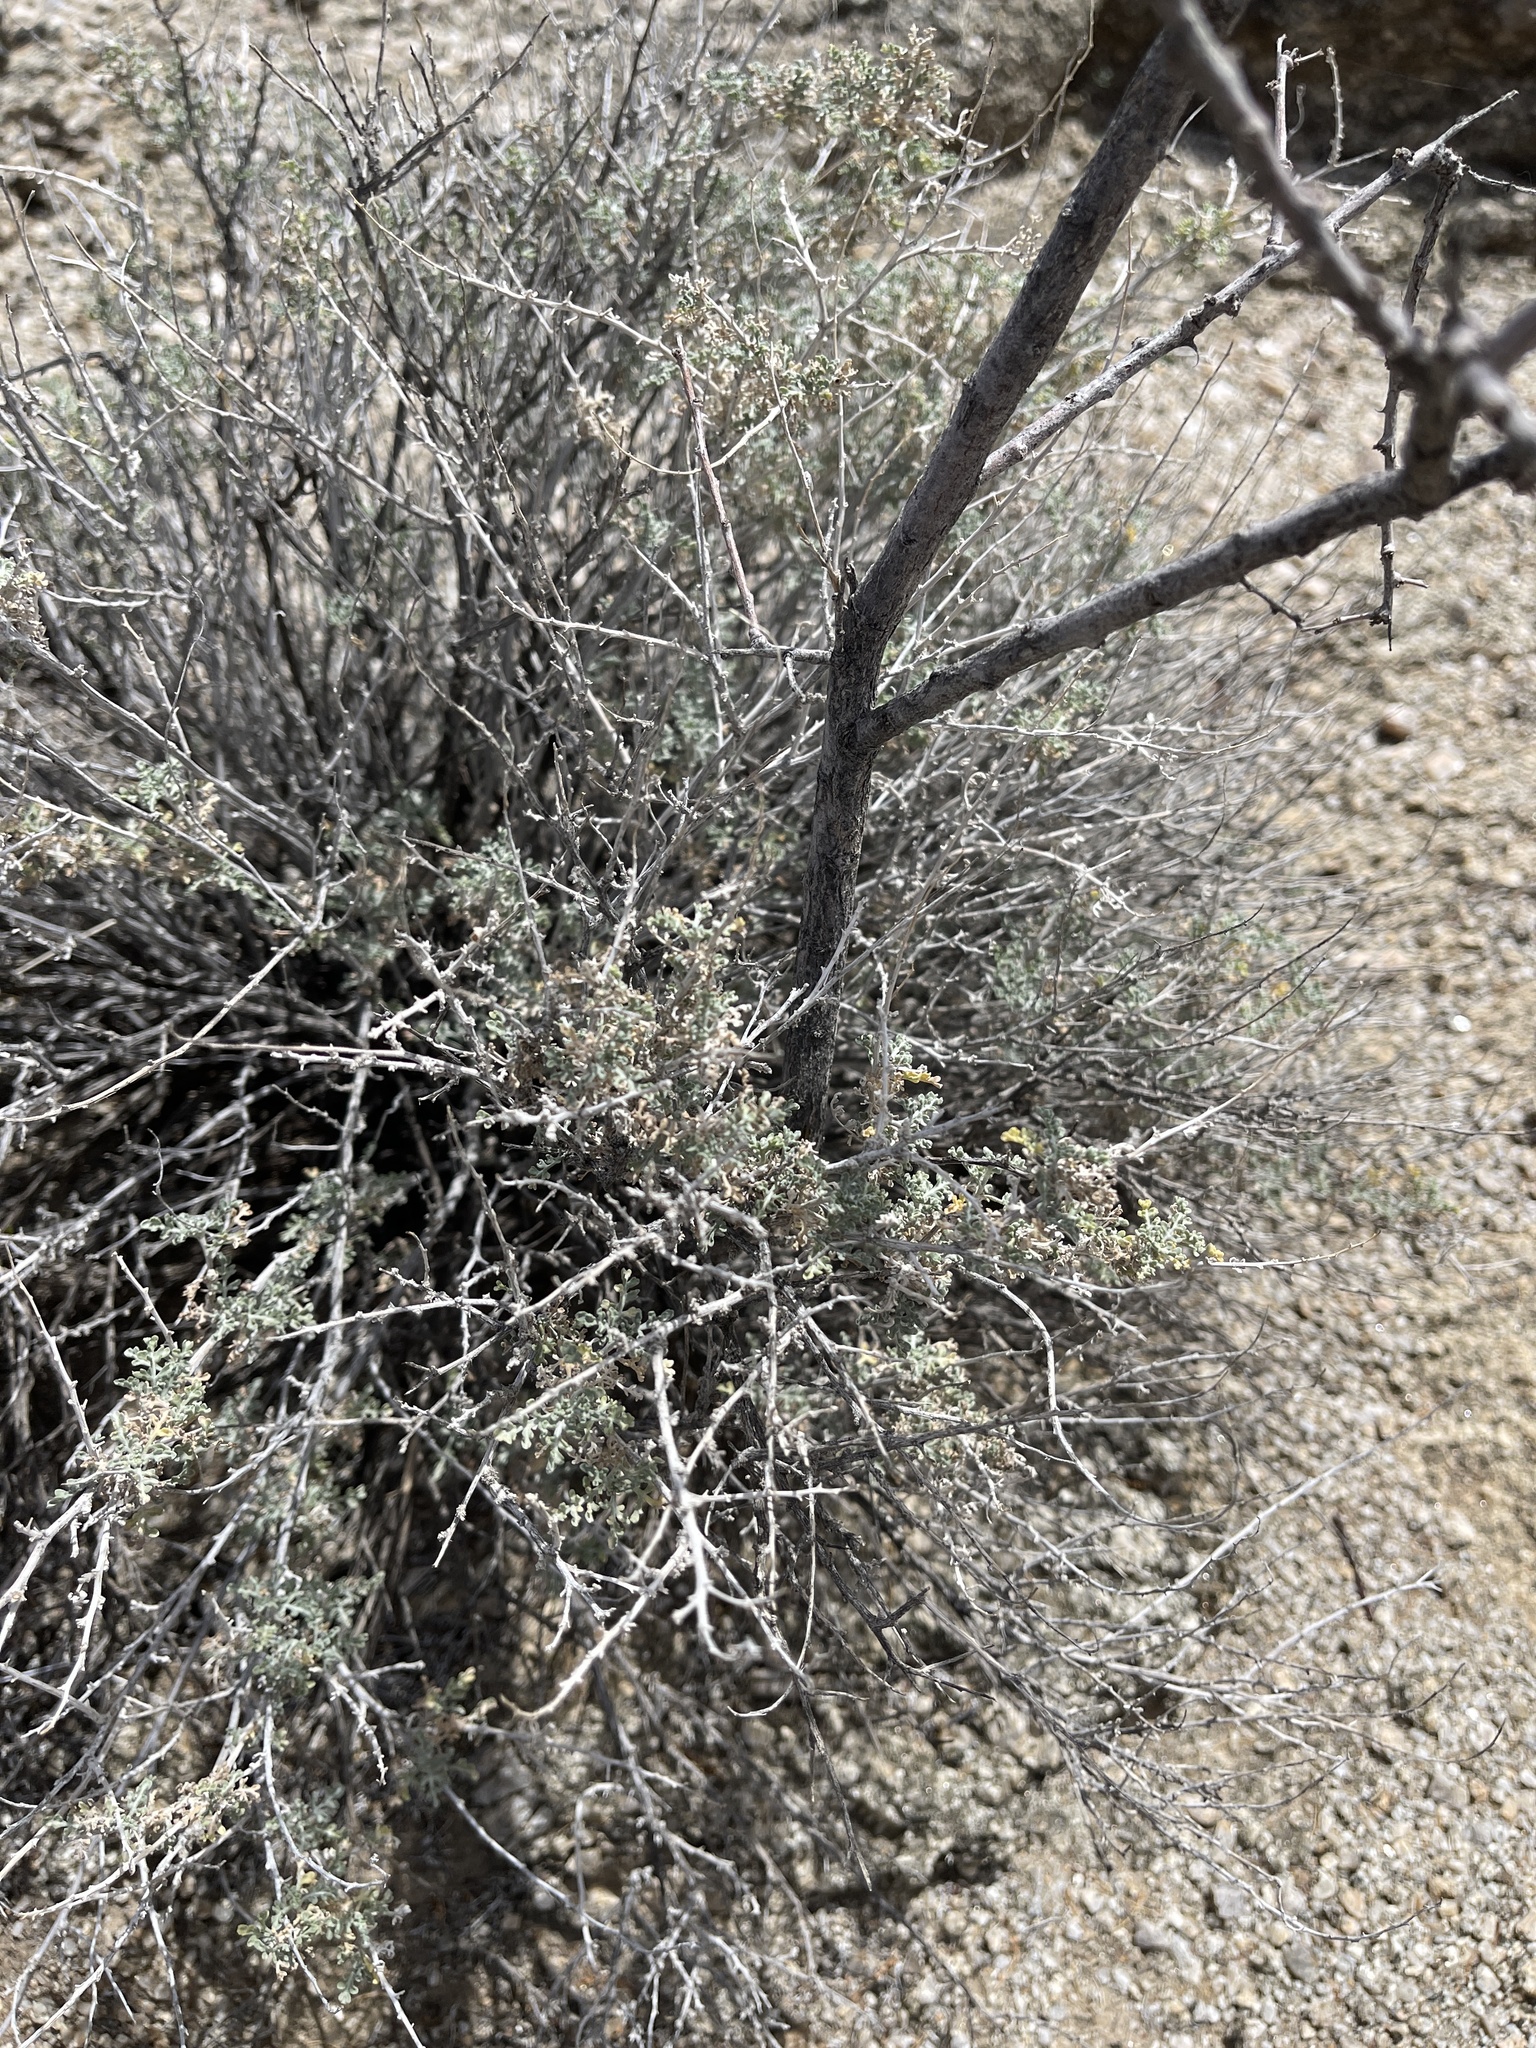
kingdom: Plantae
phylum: Tracheophyta
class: Magnoliopsida
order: Asterales
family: Asteraceae
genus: Ambrosia
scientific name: Ambrosia dumosa
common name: Bur-sage
